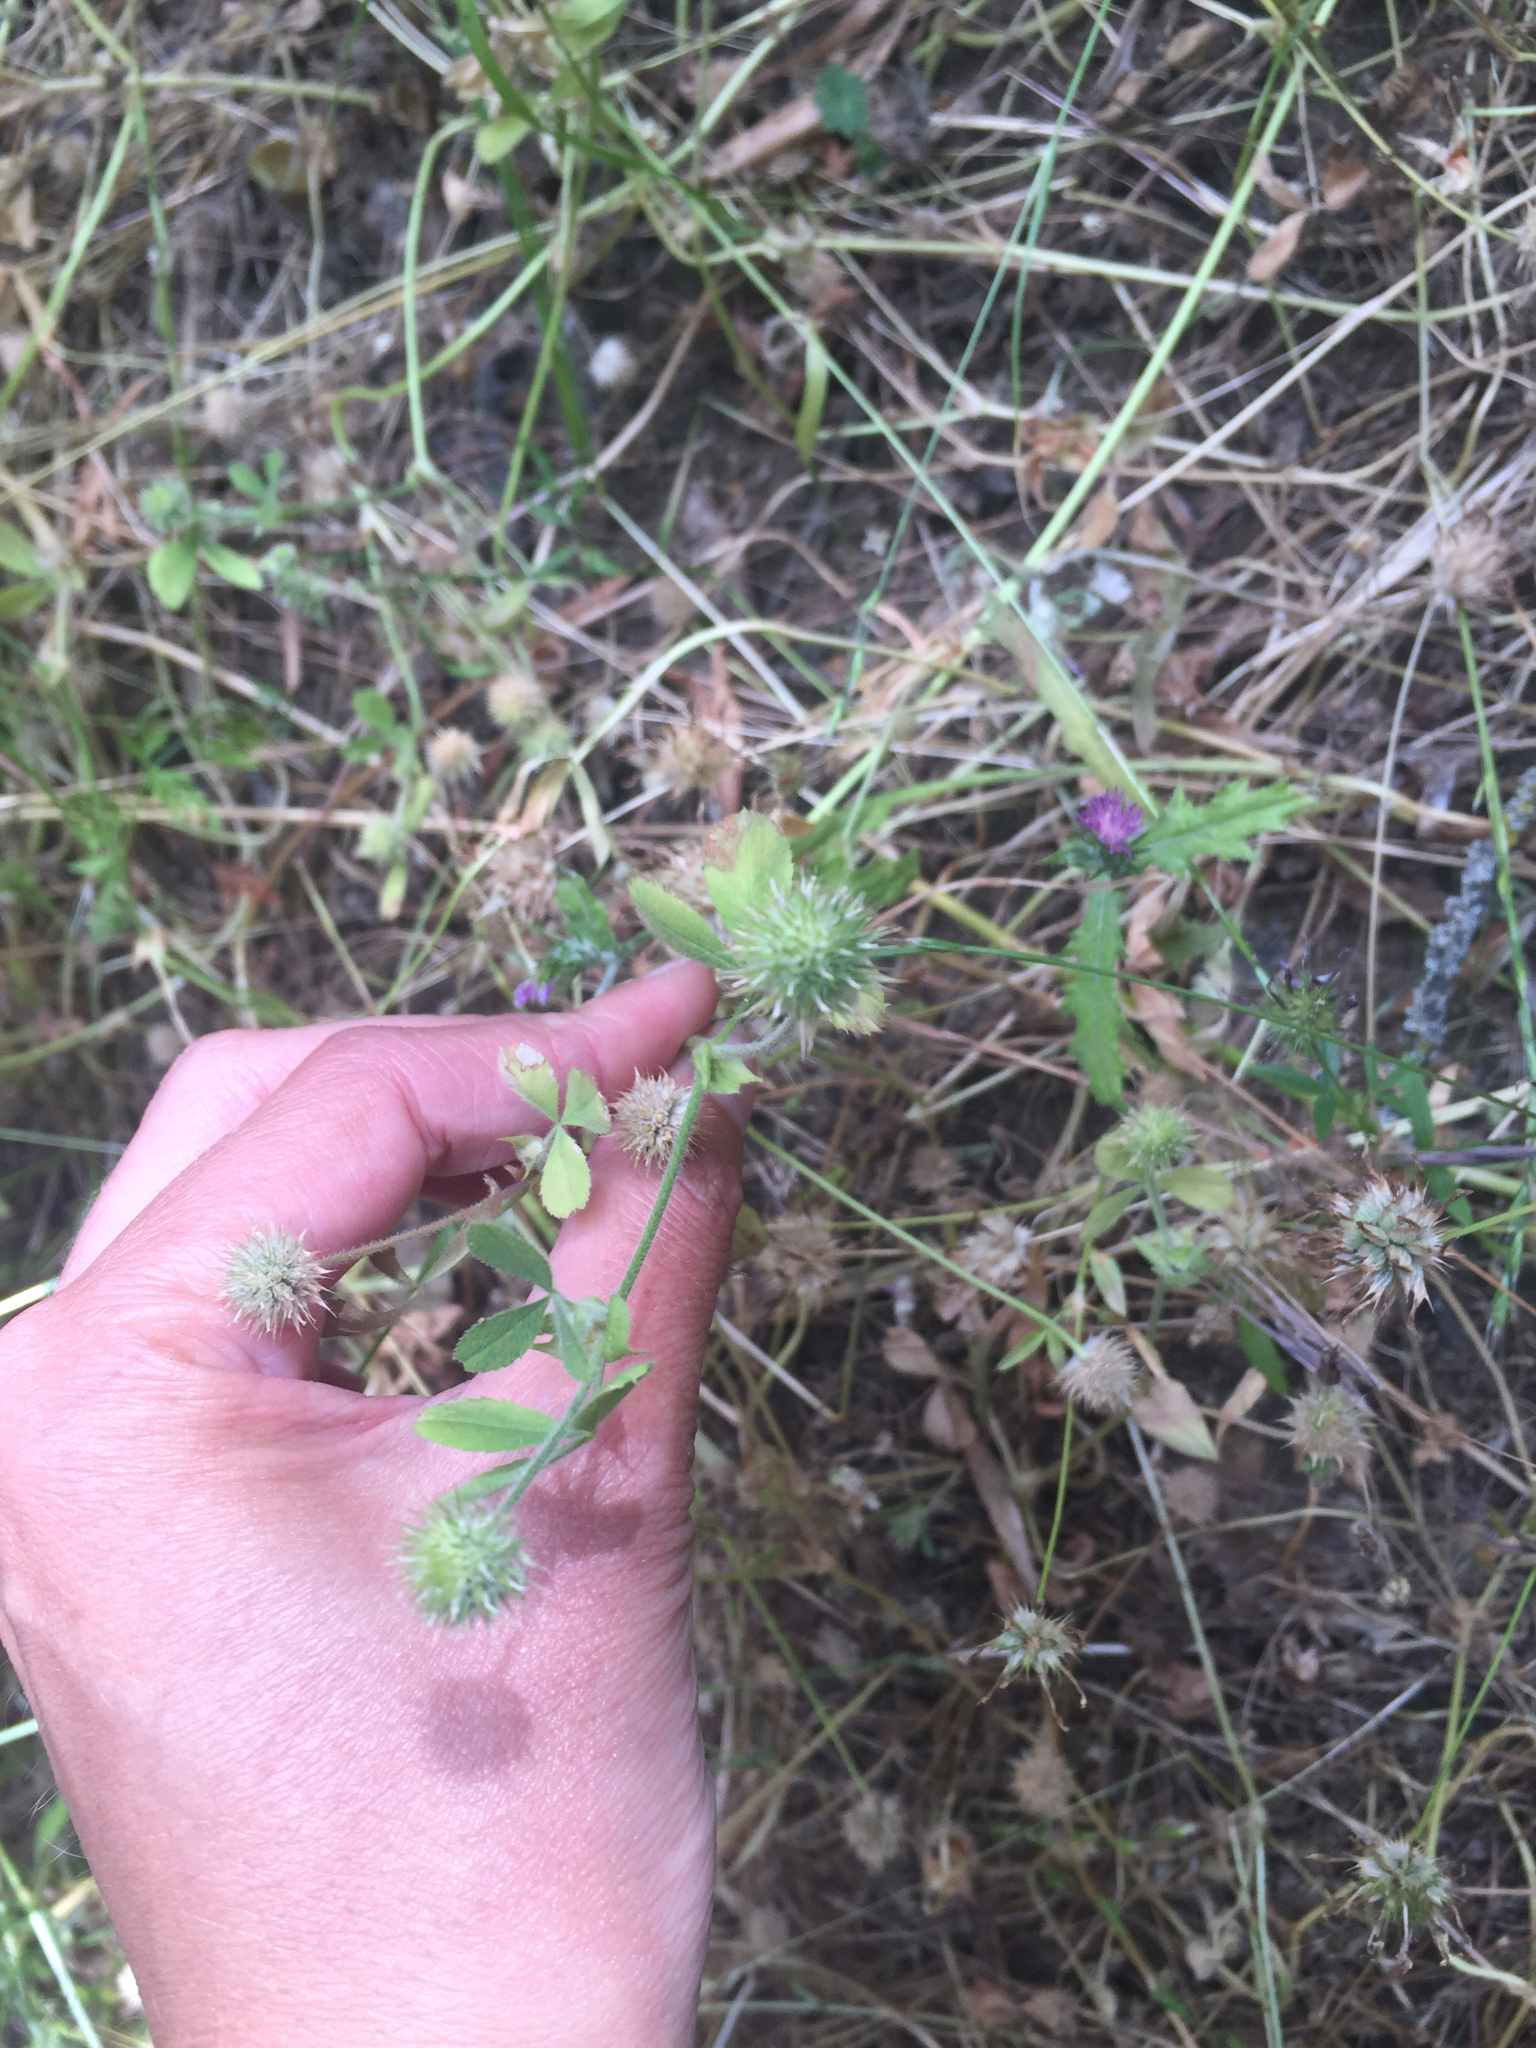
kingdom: Plantae
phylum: Tracheophyta
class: Magnoliopsida
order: Fabales
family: Fabaceae
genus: Trifolium
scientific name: Trifolium microcephalum
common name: Maiden clover
